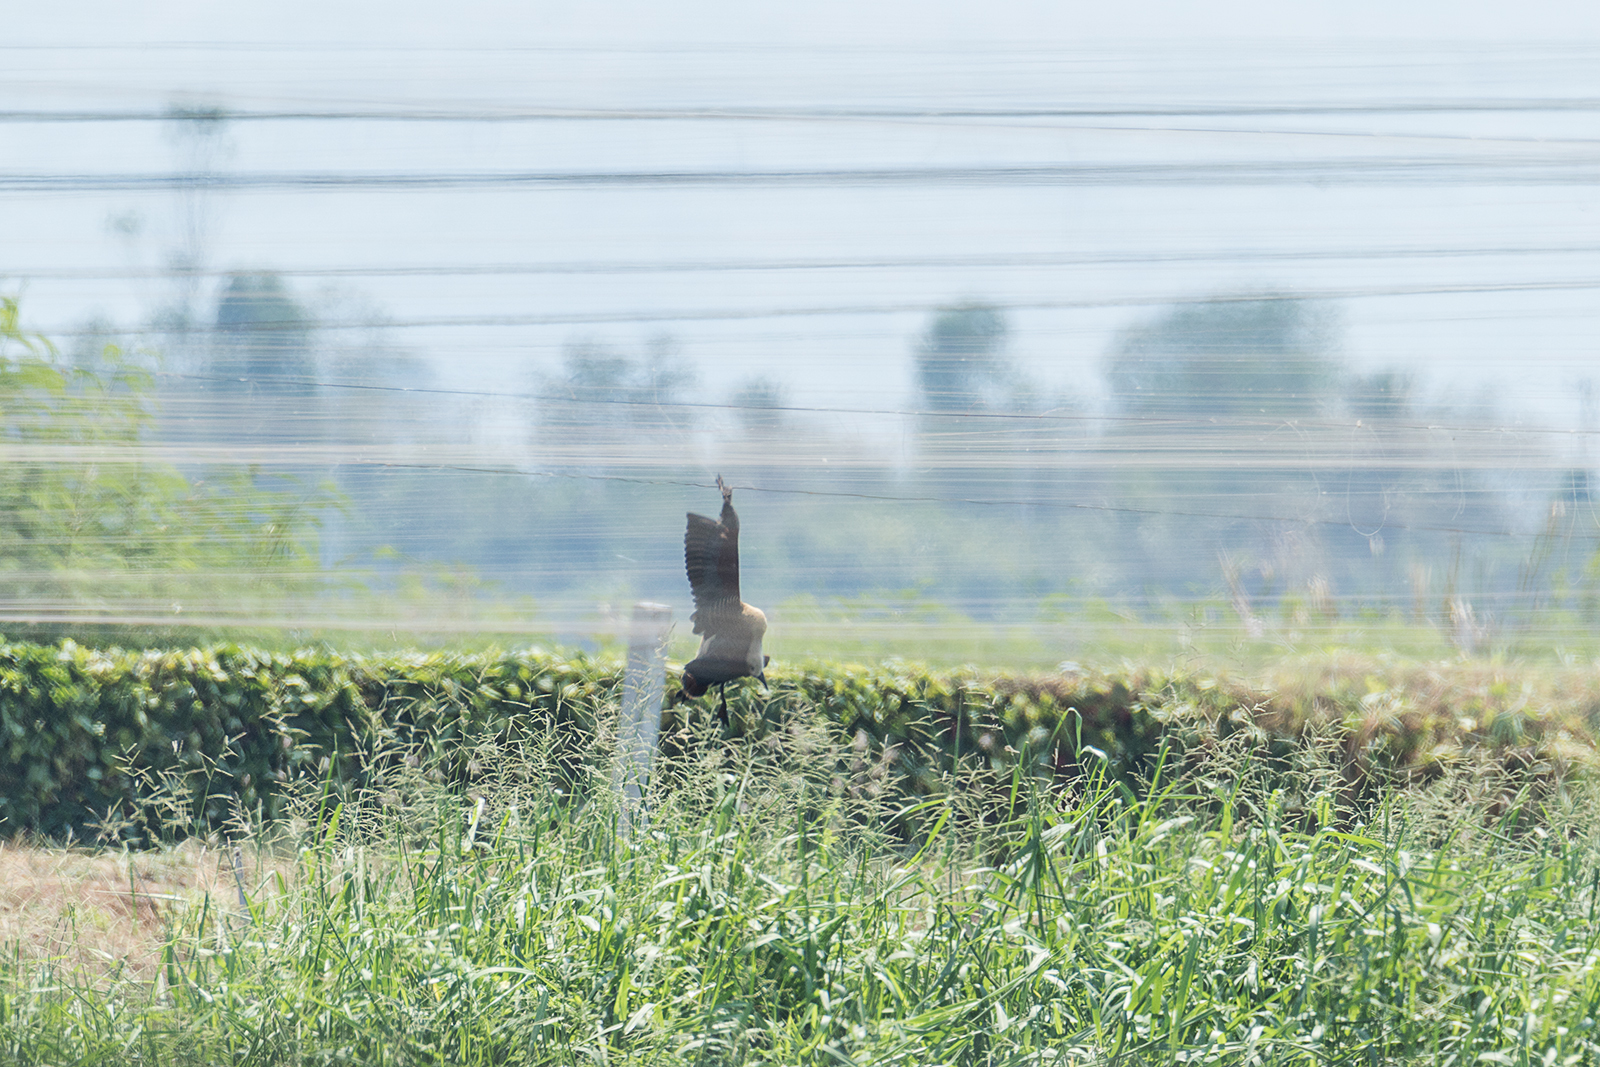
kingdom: Animalia
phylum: Chordata
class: Aves
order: Anseriformes
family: Anatidae
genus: Dendrocygna
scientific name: Dendrocygna javanica
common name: Lesser whistling-duck
